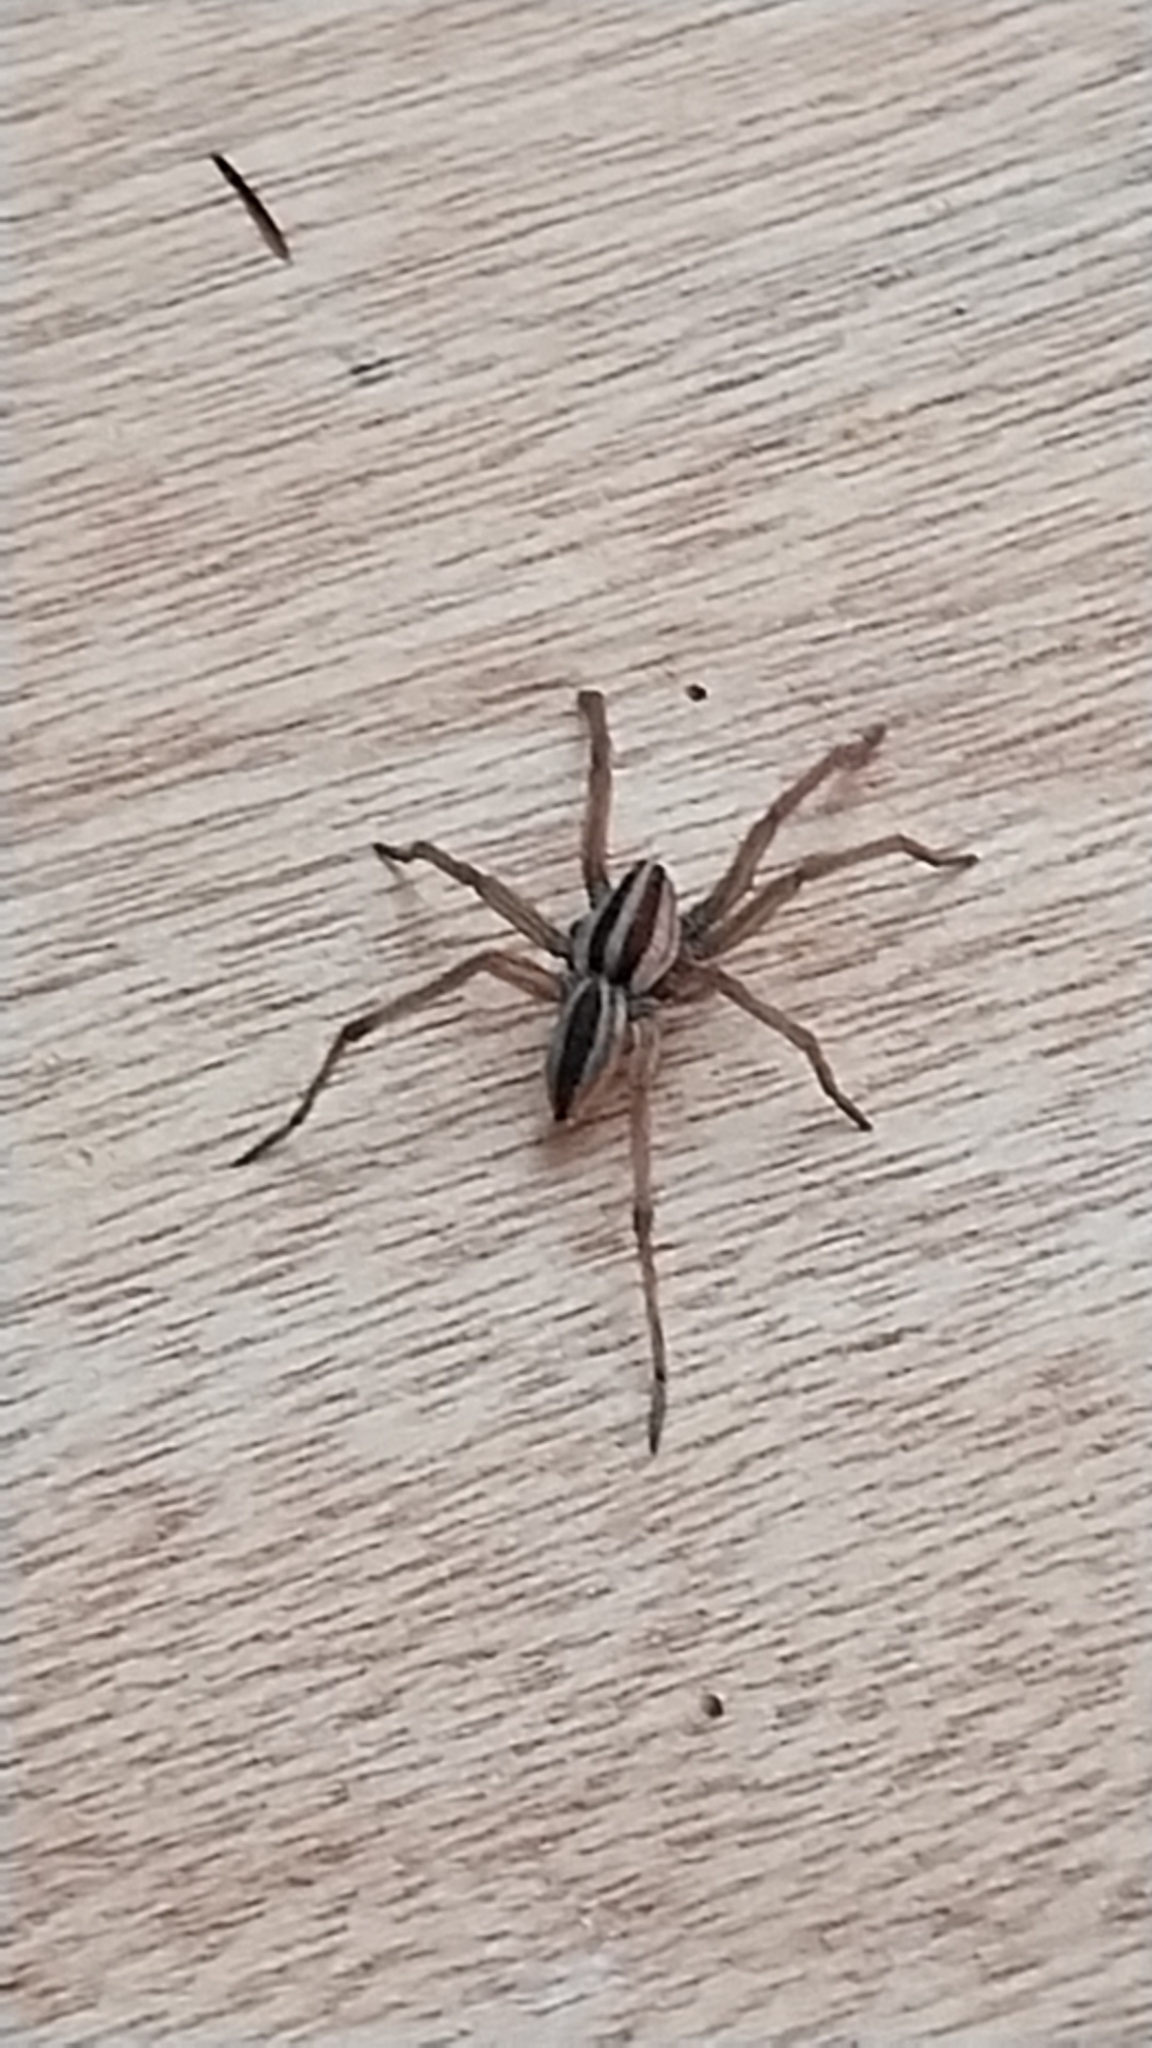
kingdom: Animalia
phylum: Arthropoda
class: Arachnida
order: Araneae
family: Lycosidae
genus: Rabidosa
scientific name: Rabidosa punctulata
